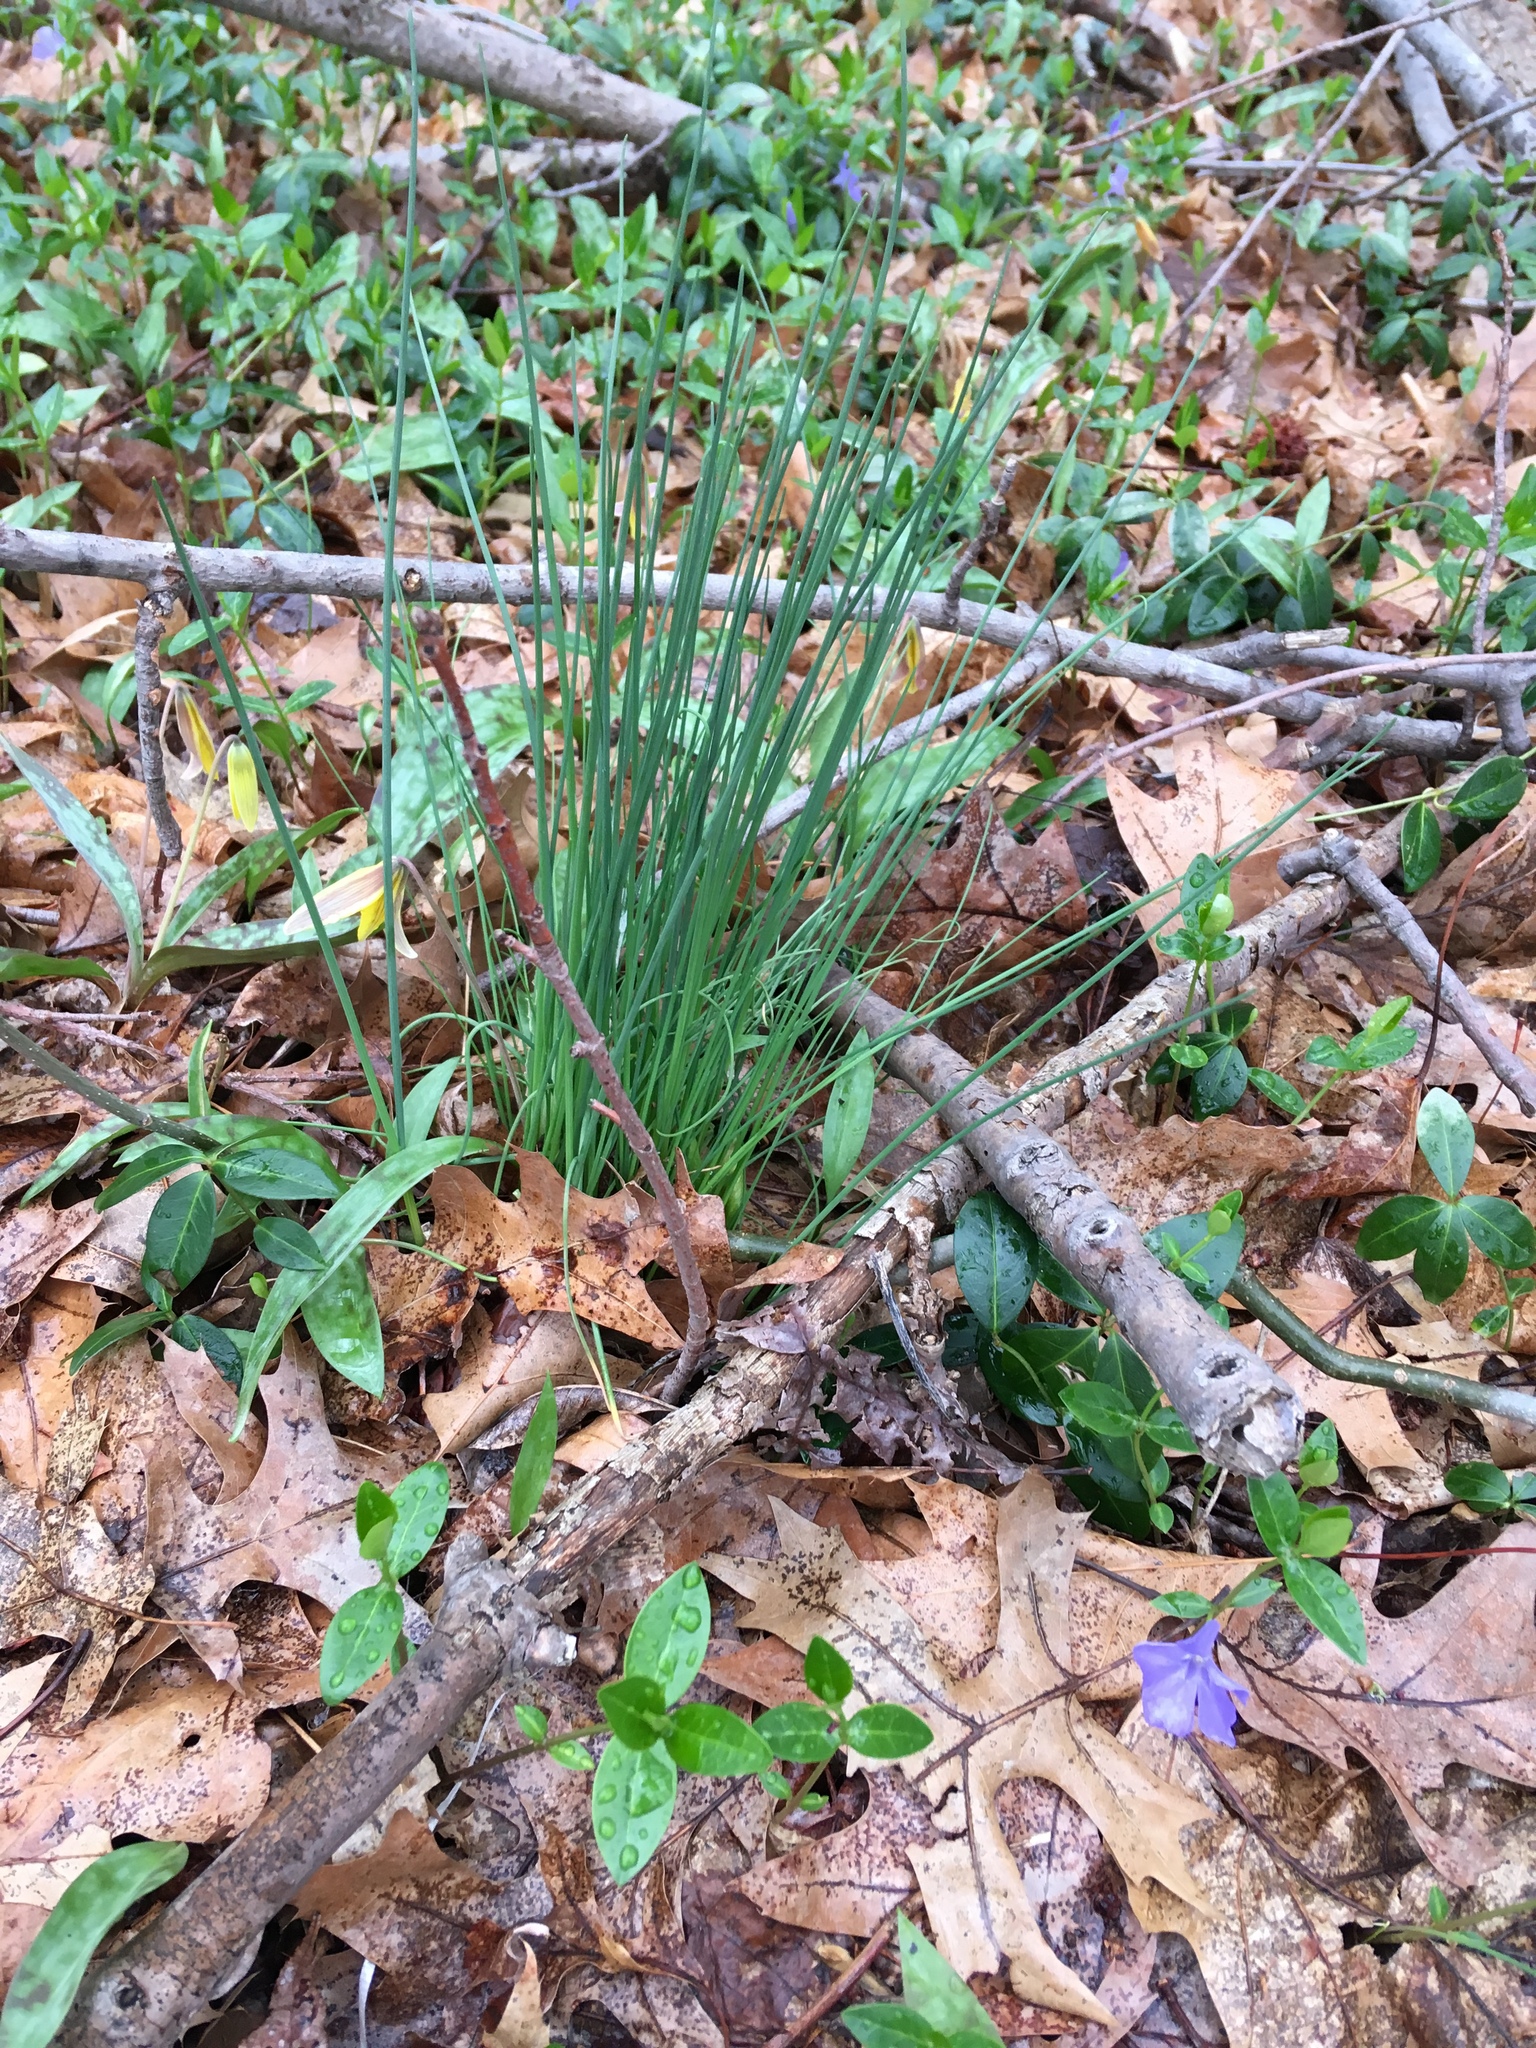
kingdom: Plantae
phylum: Tracheophyta
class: Liliopsida
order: Asparagales
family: Amaryllidaceae
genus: Allium
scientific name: Allium vineale
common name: Crow garlic
